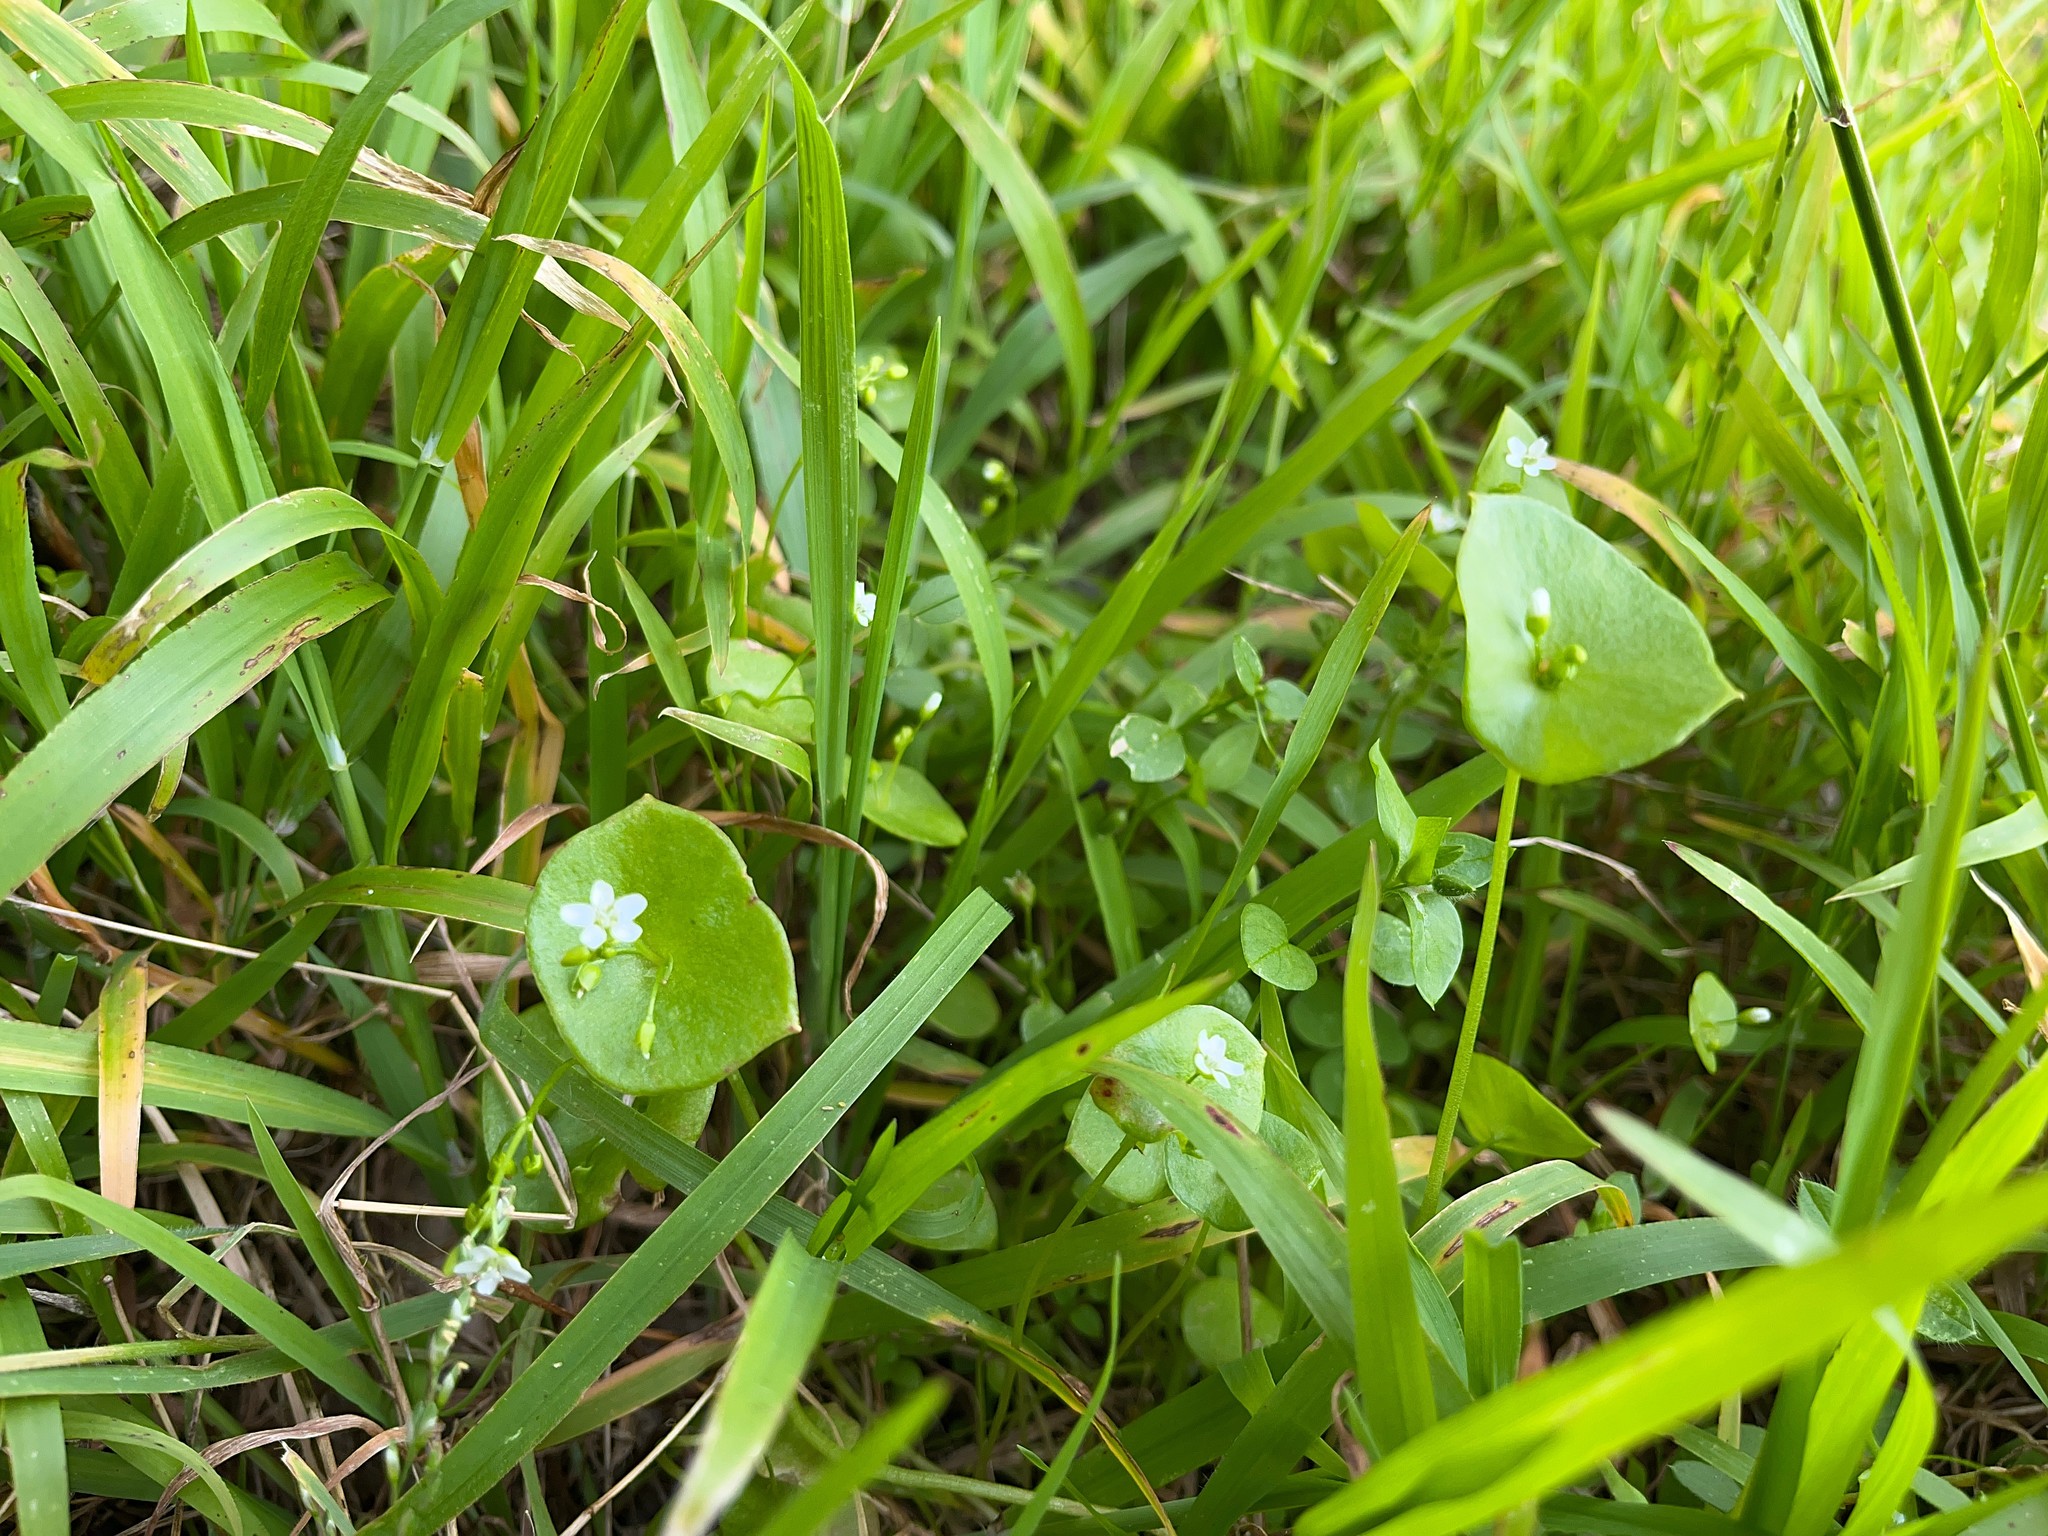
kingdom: Plantae
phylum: Tracheophyta
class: Magnoliopsida
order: Caryophyllales
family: Montiaceae
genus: Claytonia
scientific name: Claytonia perfoliata
